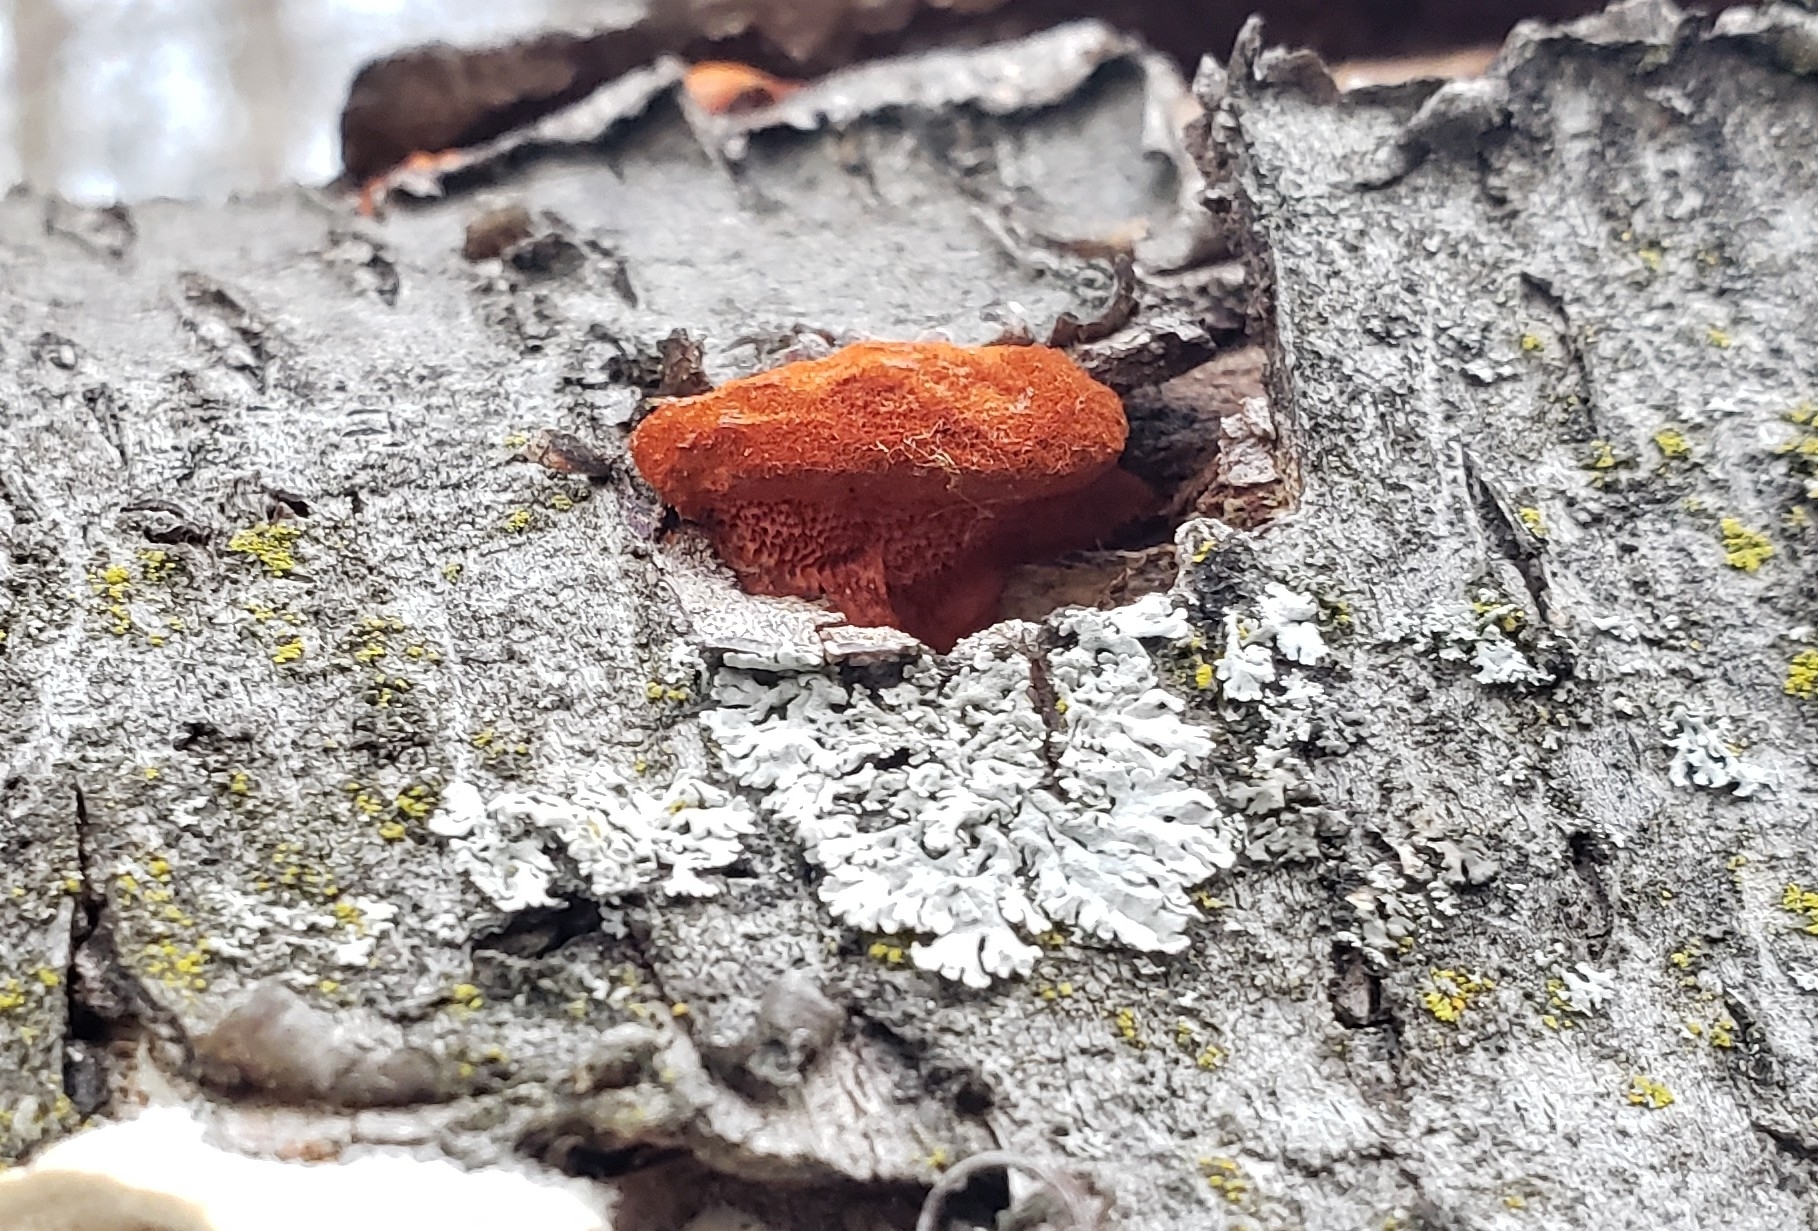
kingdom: Fungi
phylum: Basidiomycota
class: Agaricomycetes
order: Polyporales
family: Polyporaceae
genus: Trametes
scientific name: Trametes cinnabarina
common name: Northern cinnabar polypore
